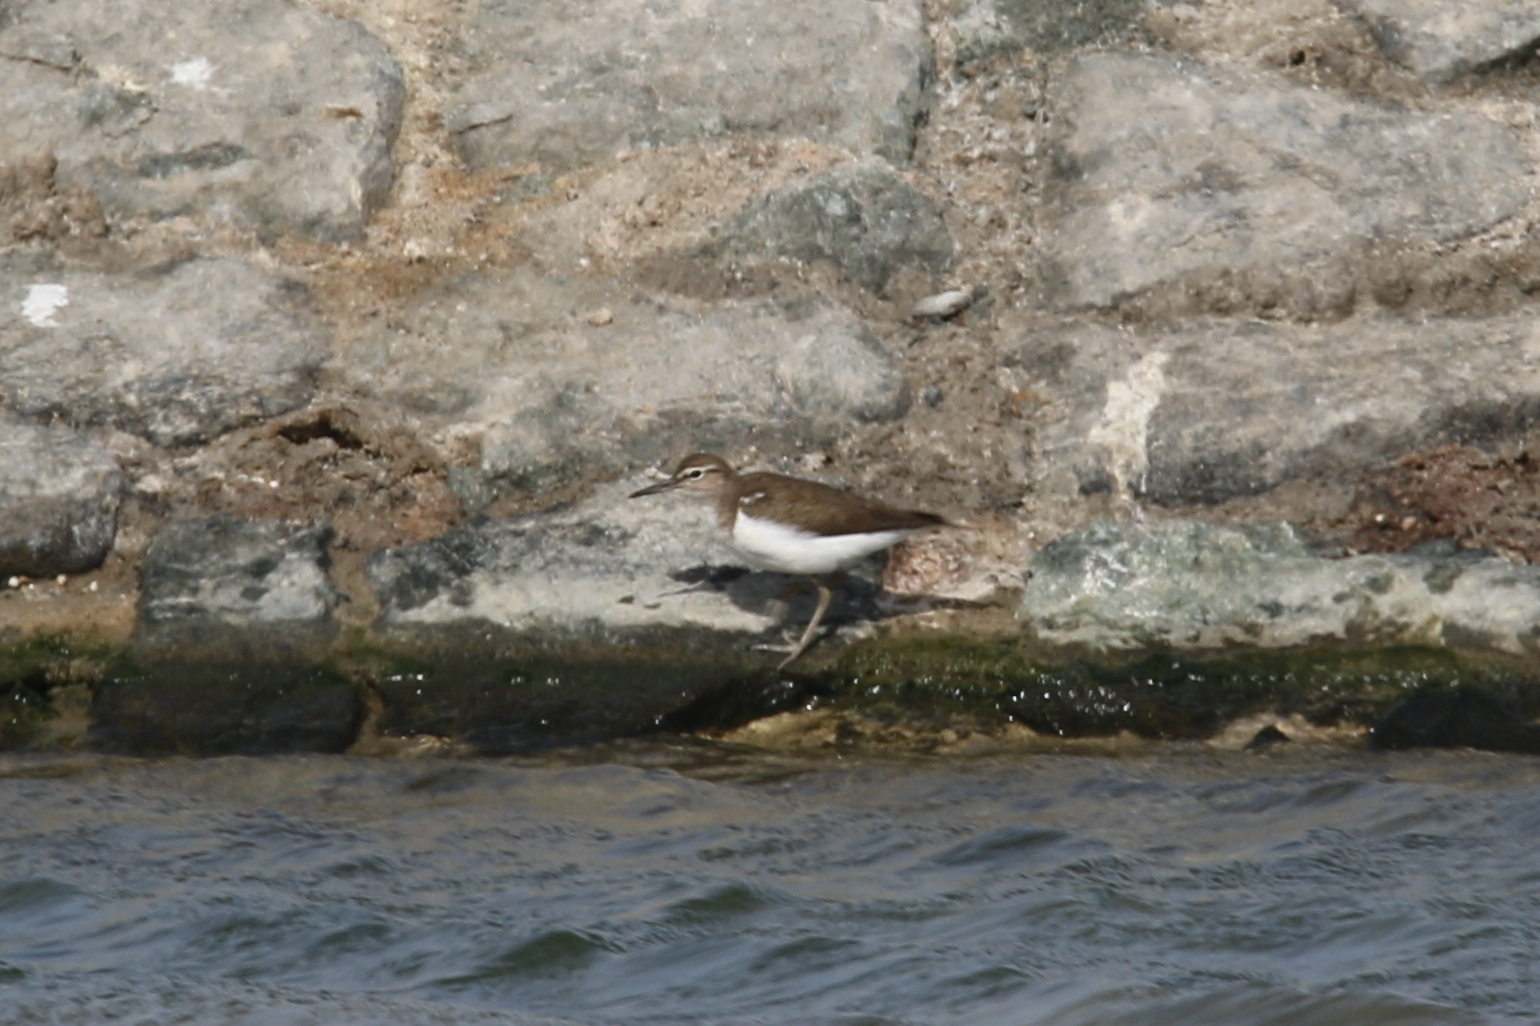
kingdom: Animalia
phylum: Chordata
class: Aves
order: Charadriiformes
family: Scolopacidae
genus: Actitis
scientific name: Actitis hypoleucos
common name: Common sandpiper
